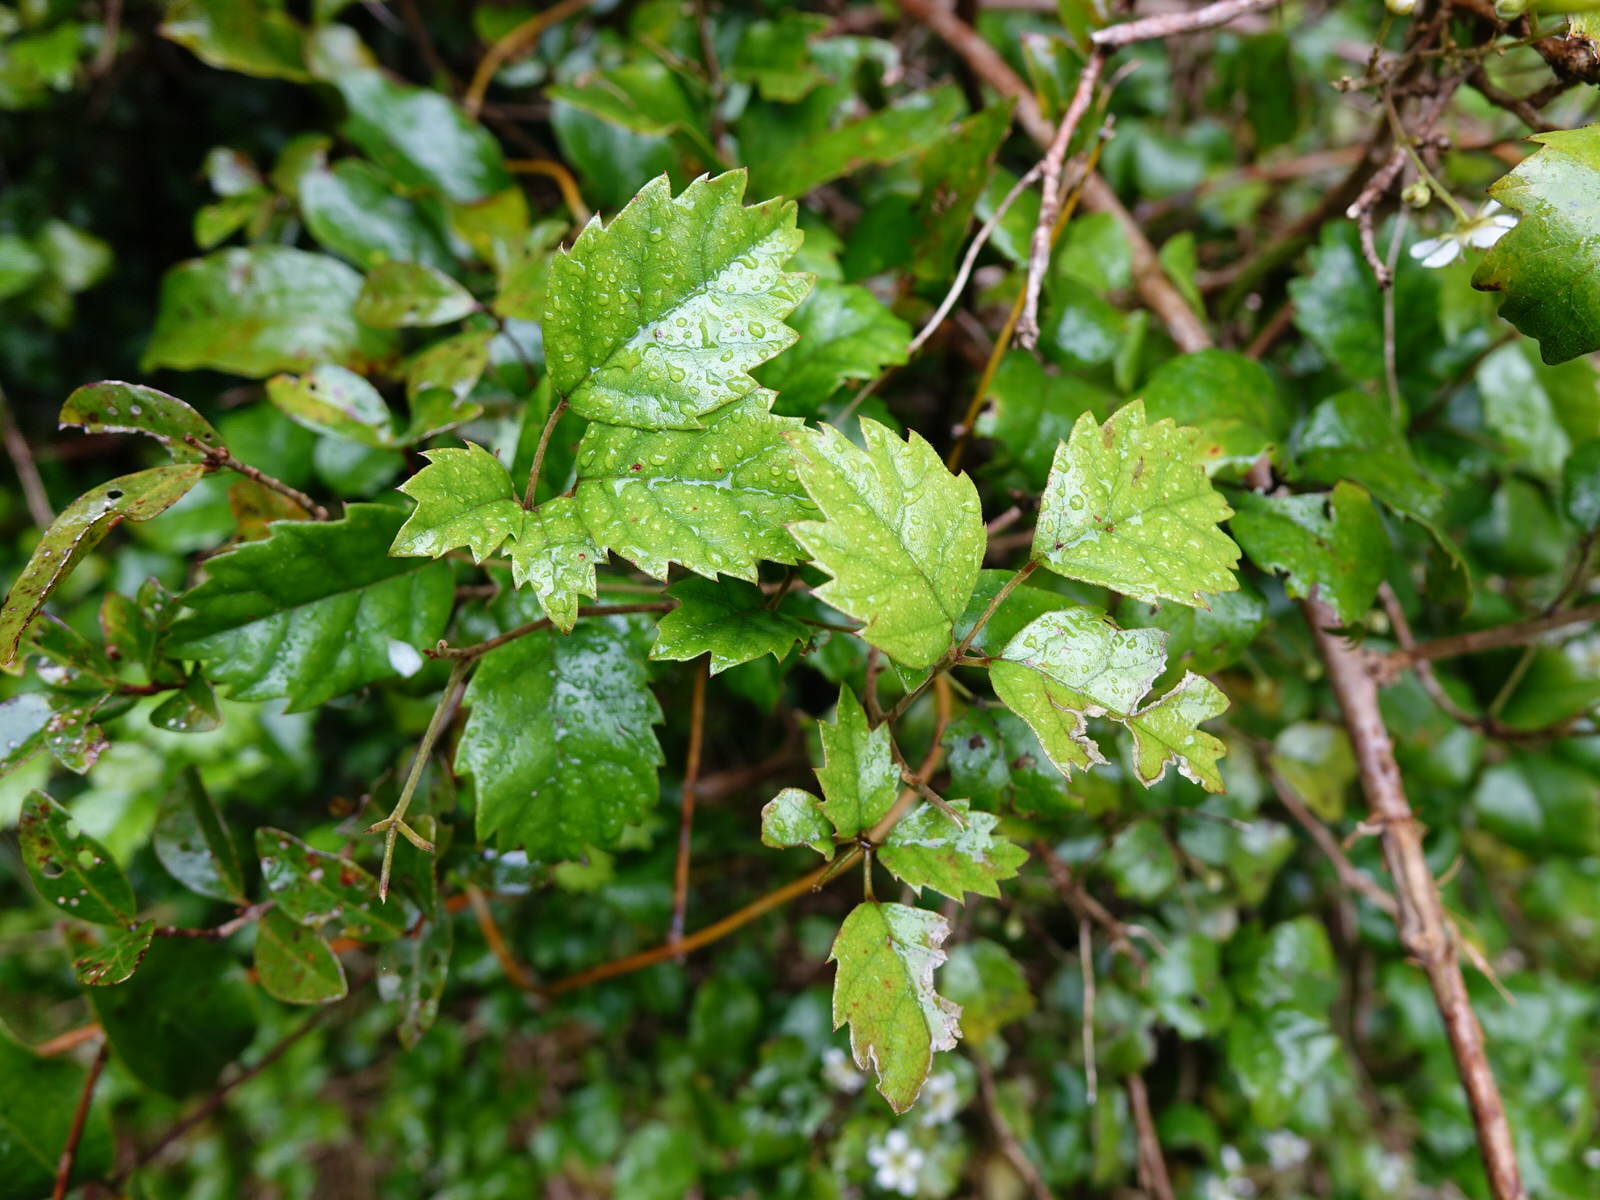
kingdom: Plantae
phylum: Tracheophyta
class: Magnoliopsida
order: Rosales
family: Rosaceae
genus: Rubus
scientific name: Rubus australis
